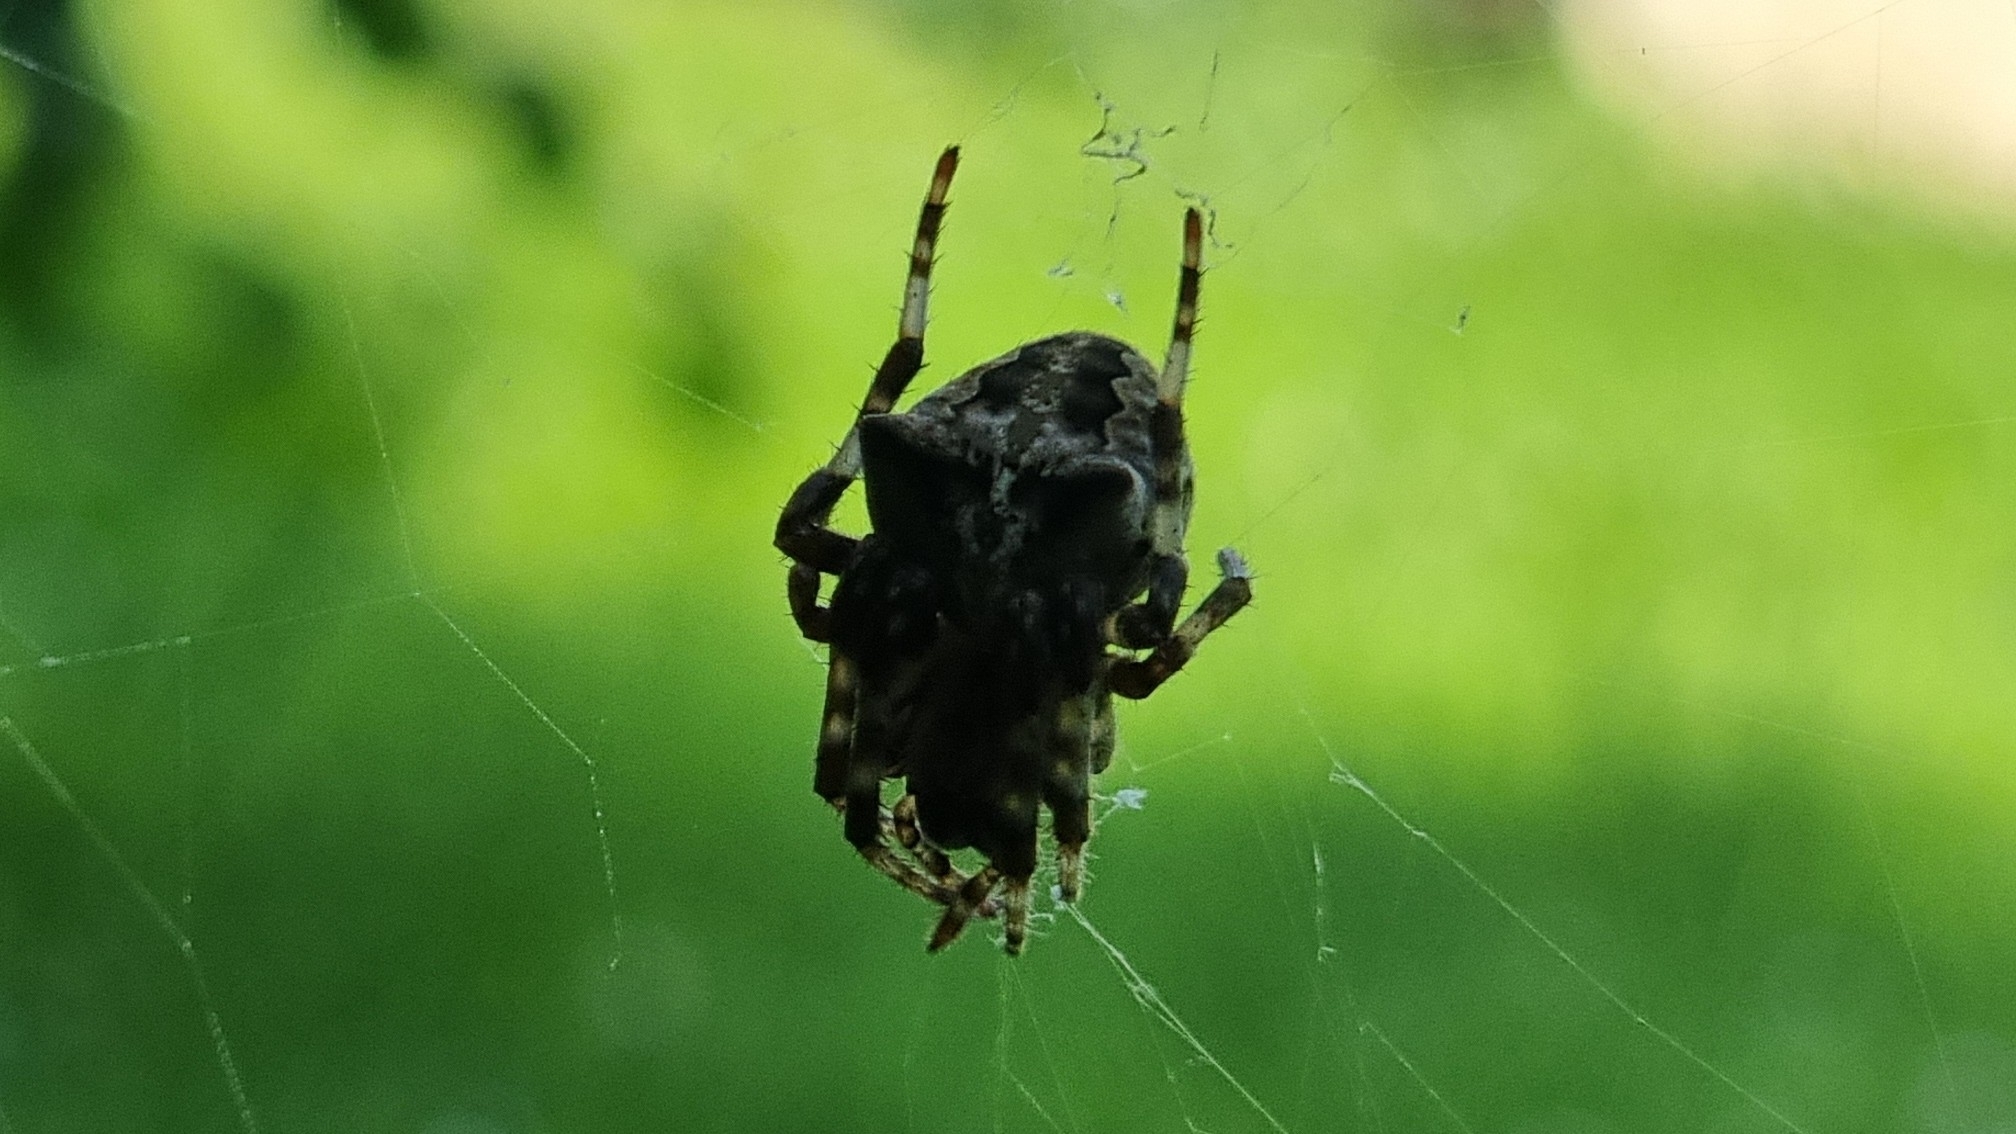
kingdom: Animalia
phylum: Arthropoda
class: Arachnida
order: Araneae
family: Araneidae
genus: Araneus
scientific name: Araneus angulatus
